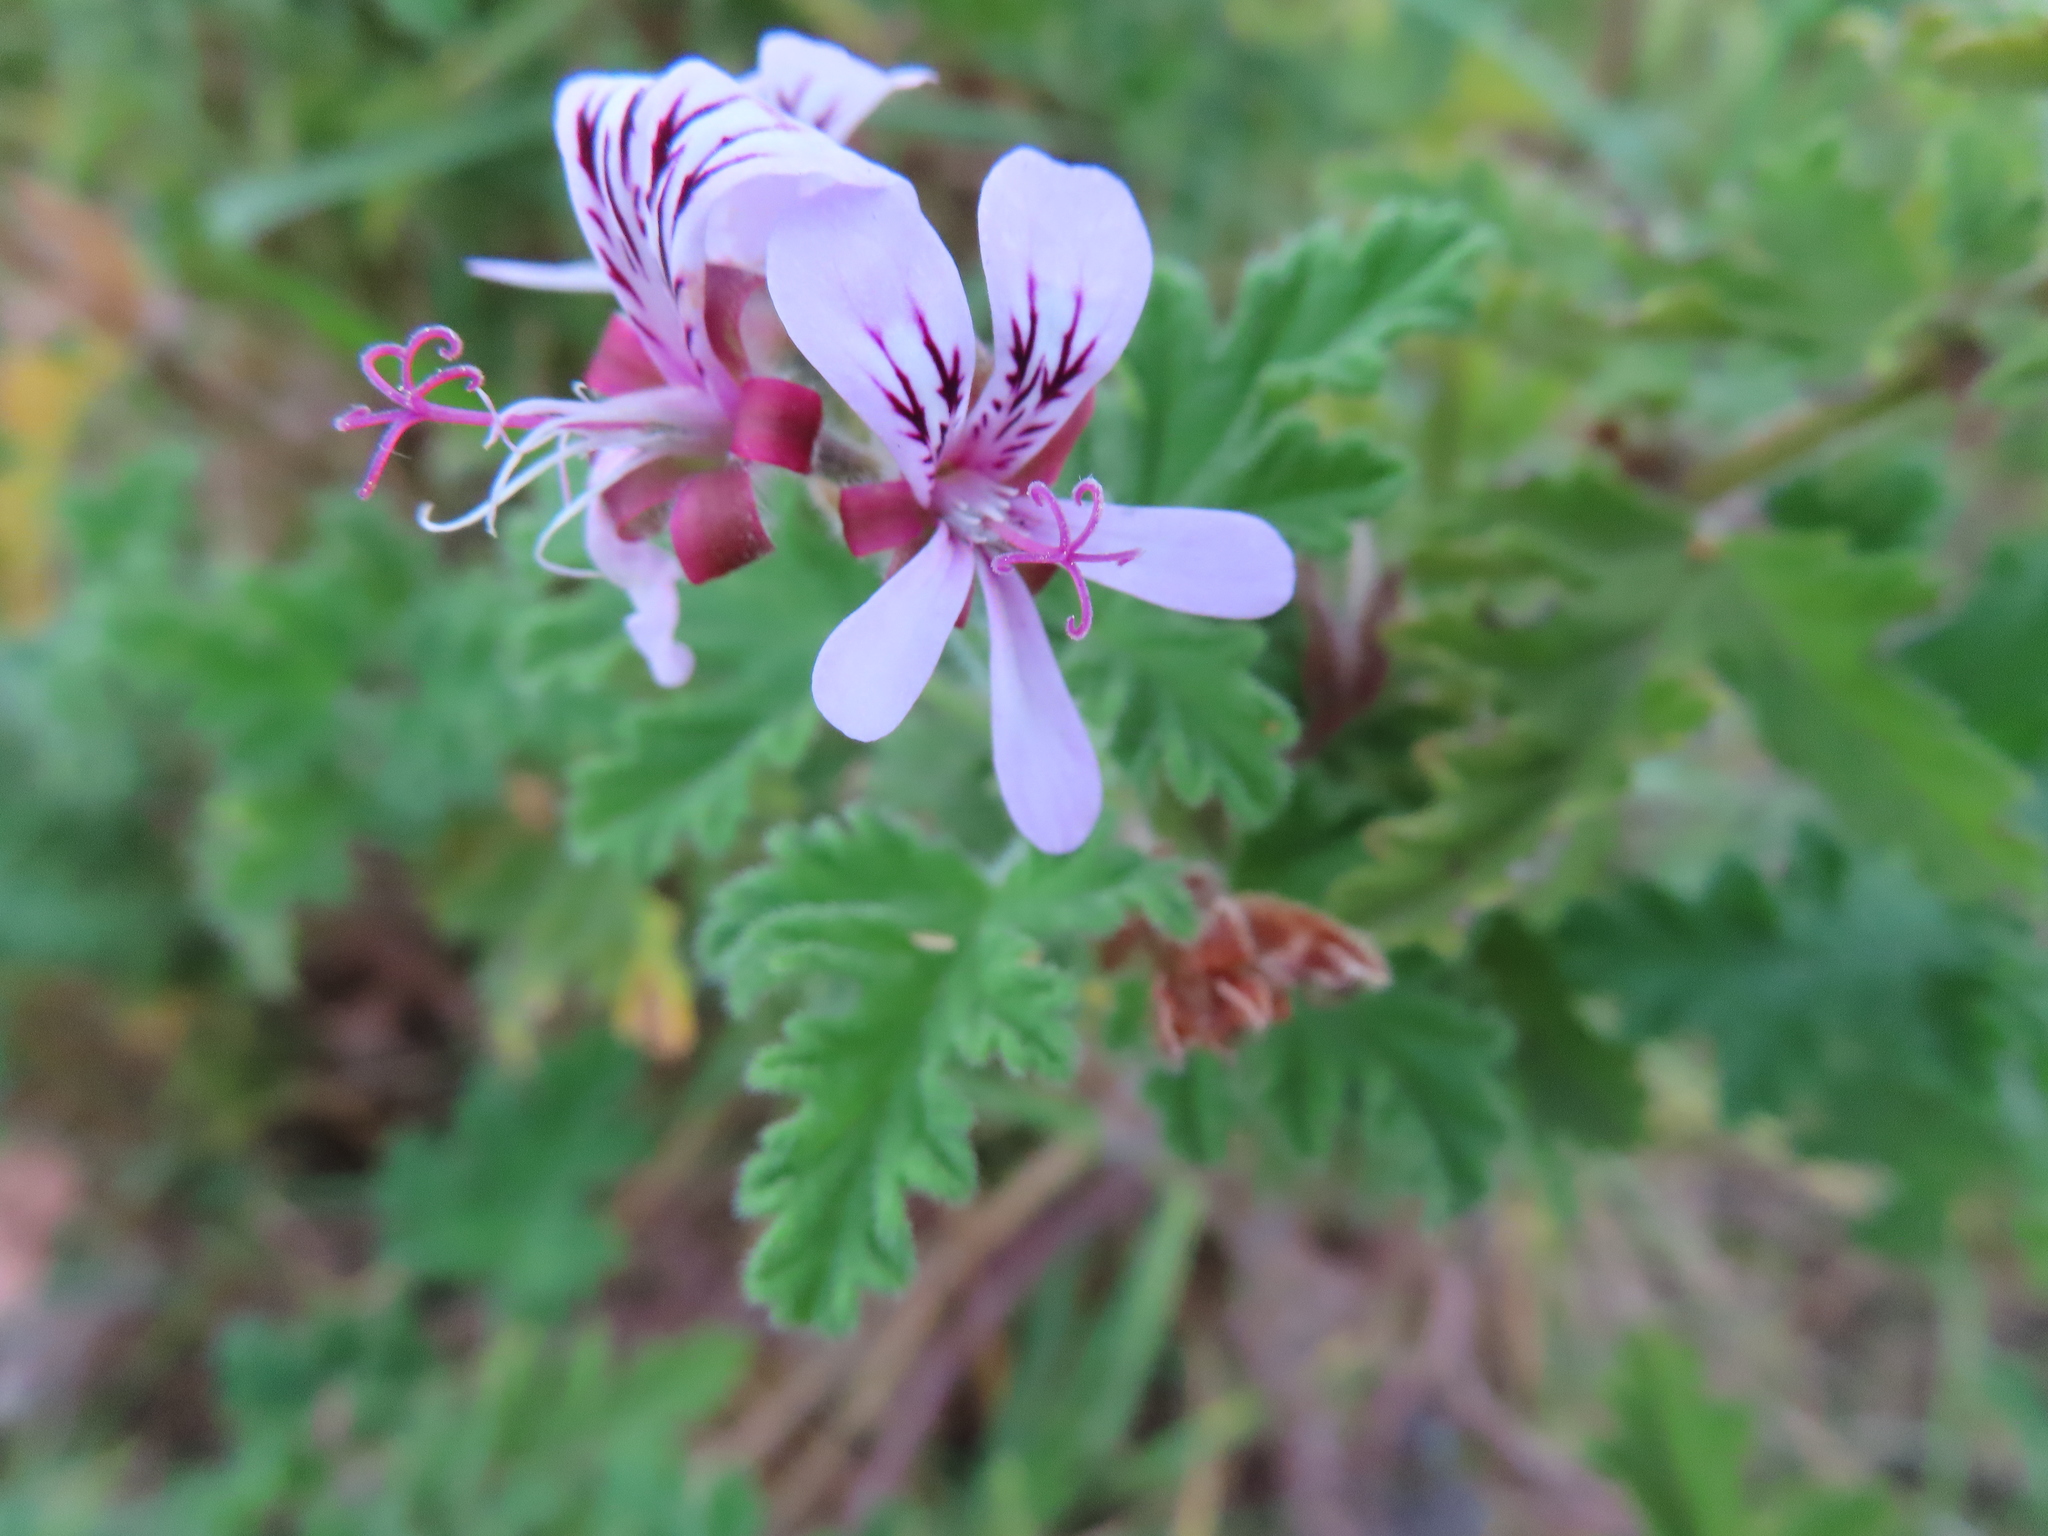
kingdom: Plantae
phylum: Tracheophyta
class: Magnoliopsida
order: Geraniales
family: Geraniaceae
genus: Pelargonium
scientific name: Pelargonium graveolens
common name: Rose-scent geranium
